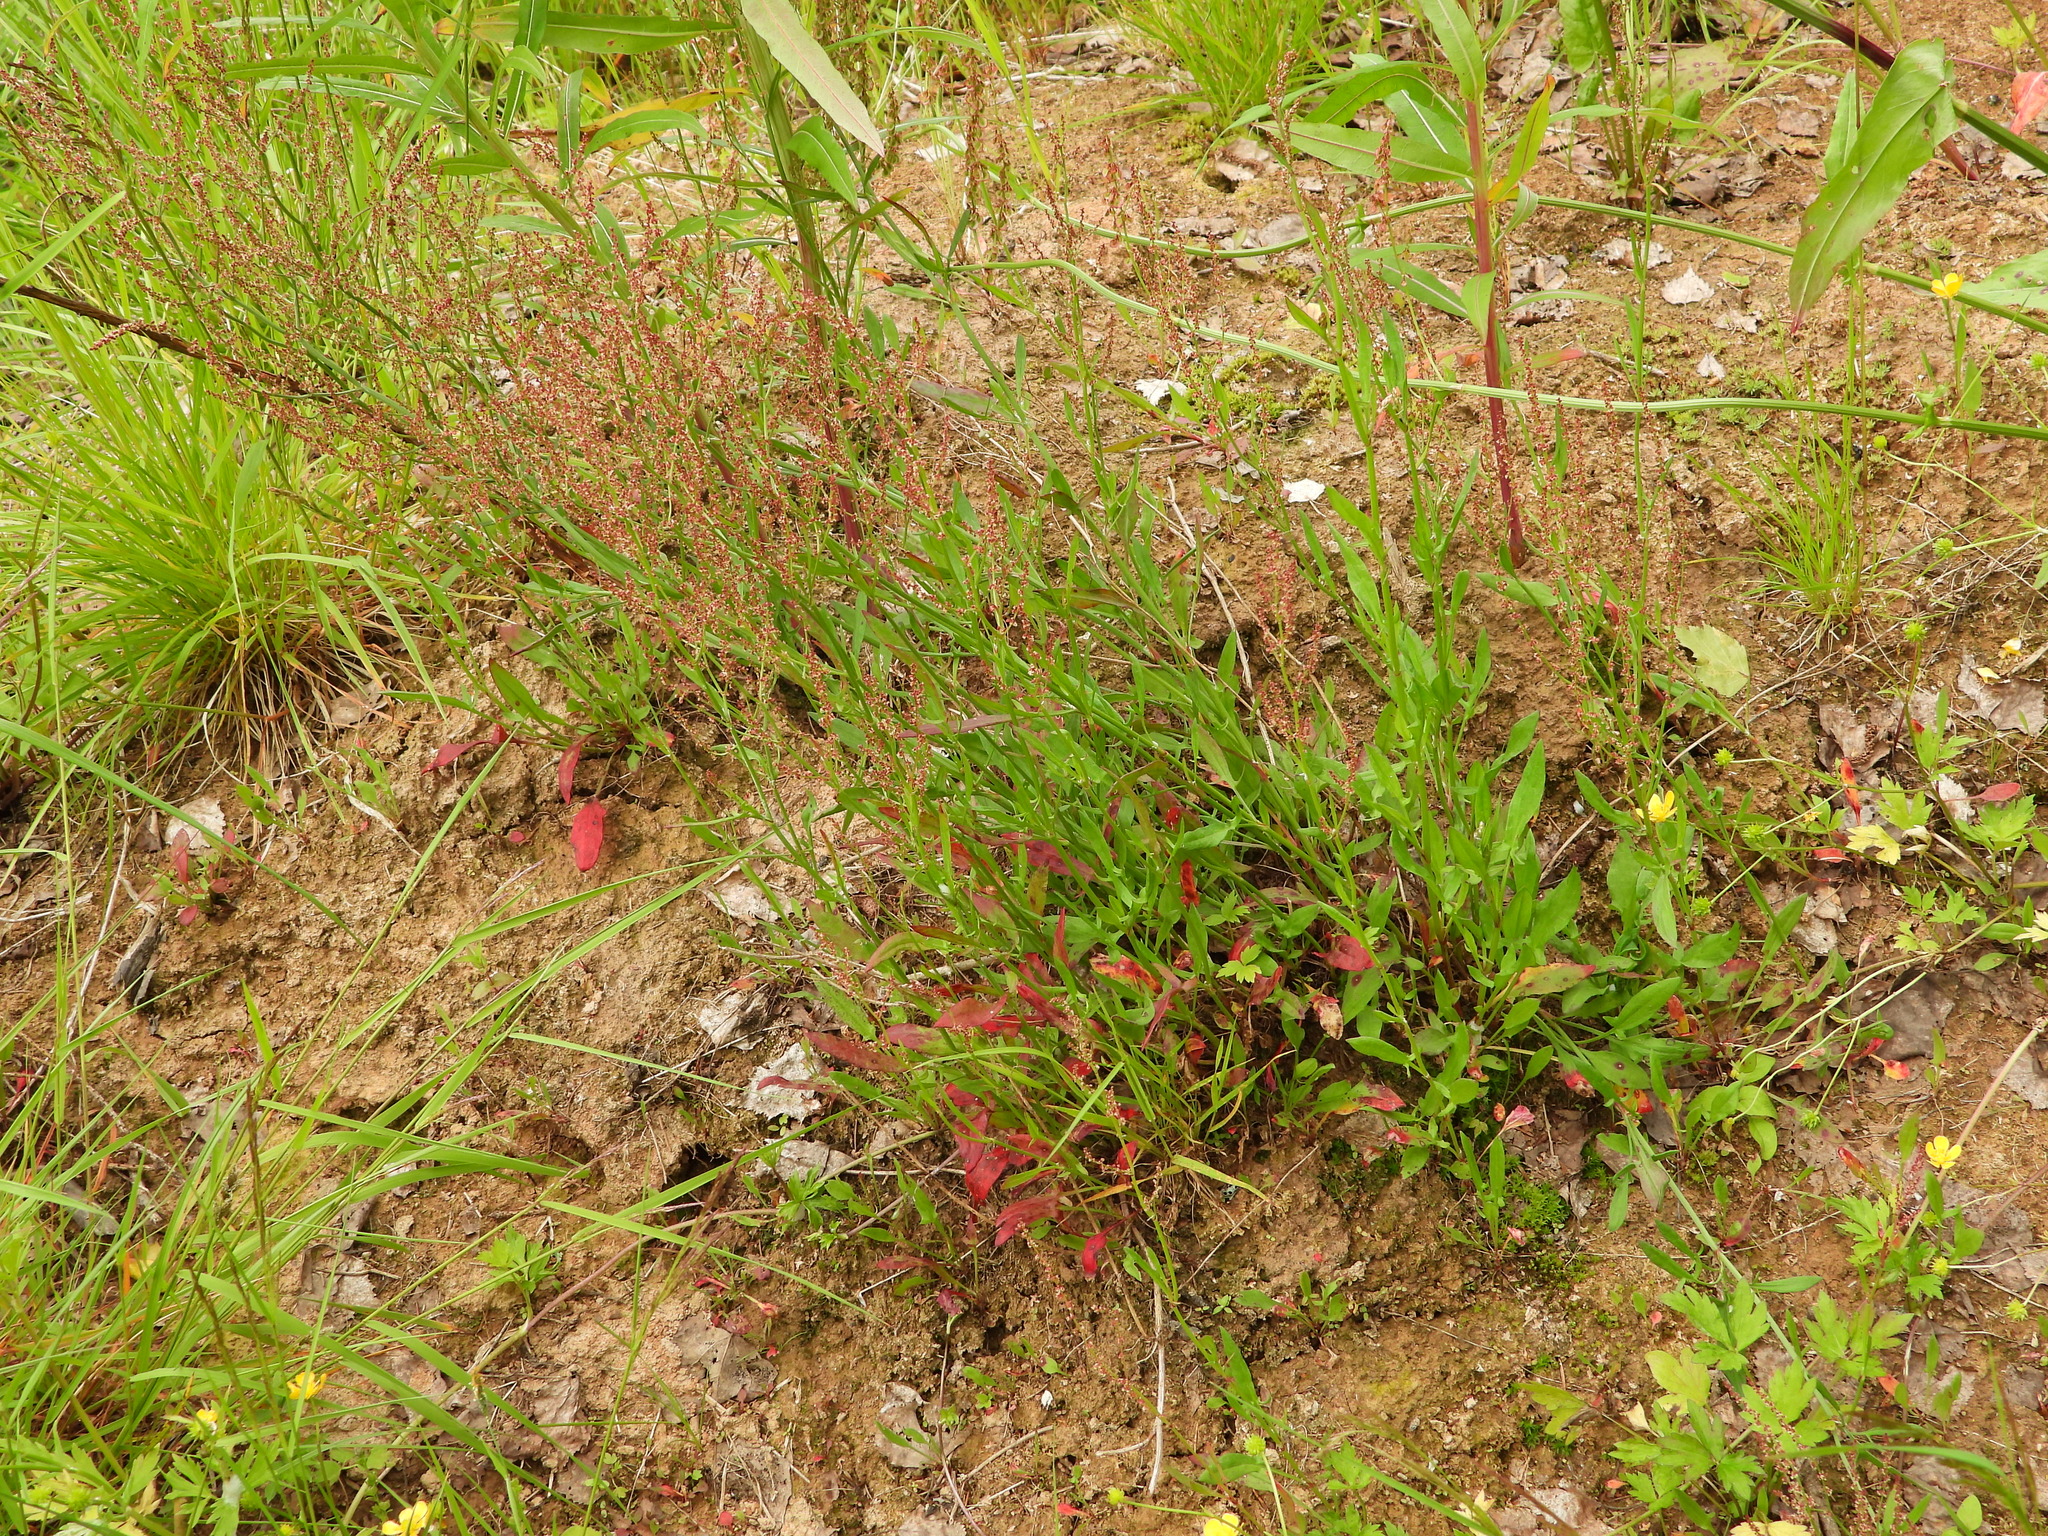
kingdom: Plantae
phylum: Tracheophyta
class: Magnoliopsida
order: Caryophyllales
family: Polygonaceae
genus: Rumex
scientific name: Rumex acetosella
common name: Common sheep sorrel
